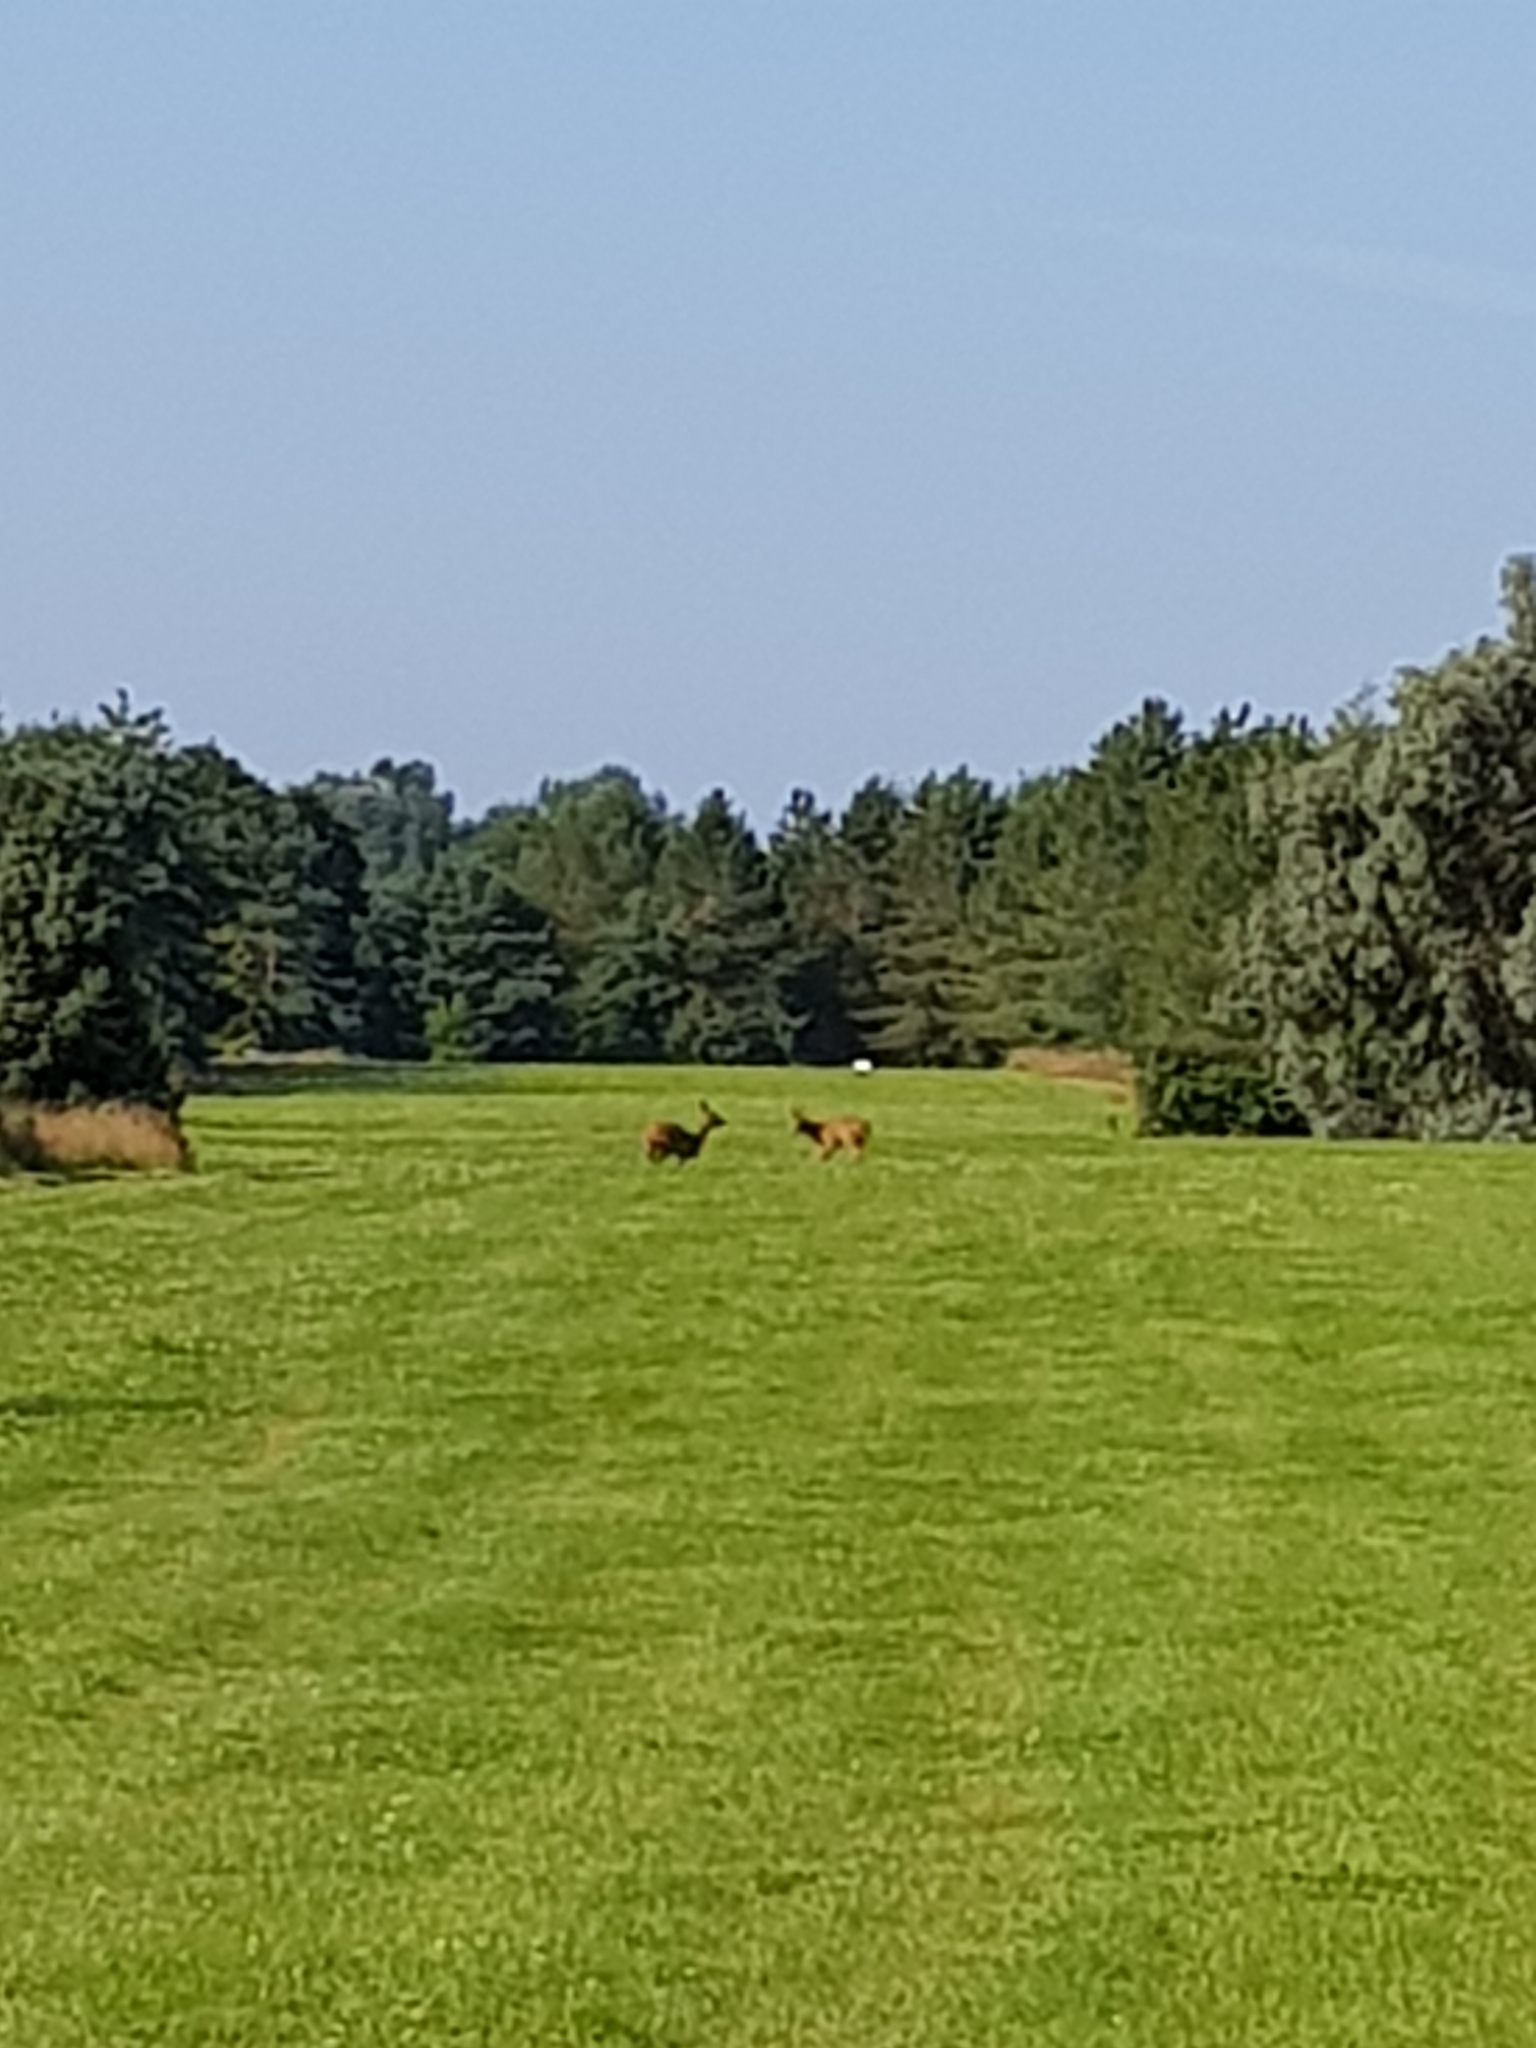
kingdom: Animalia
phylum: Chordata
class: Mammalia
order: Artiodactyla
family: Cervidae
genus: Capreolus
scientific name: Capreolus capreolus
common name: Western roe deer
